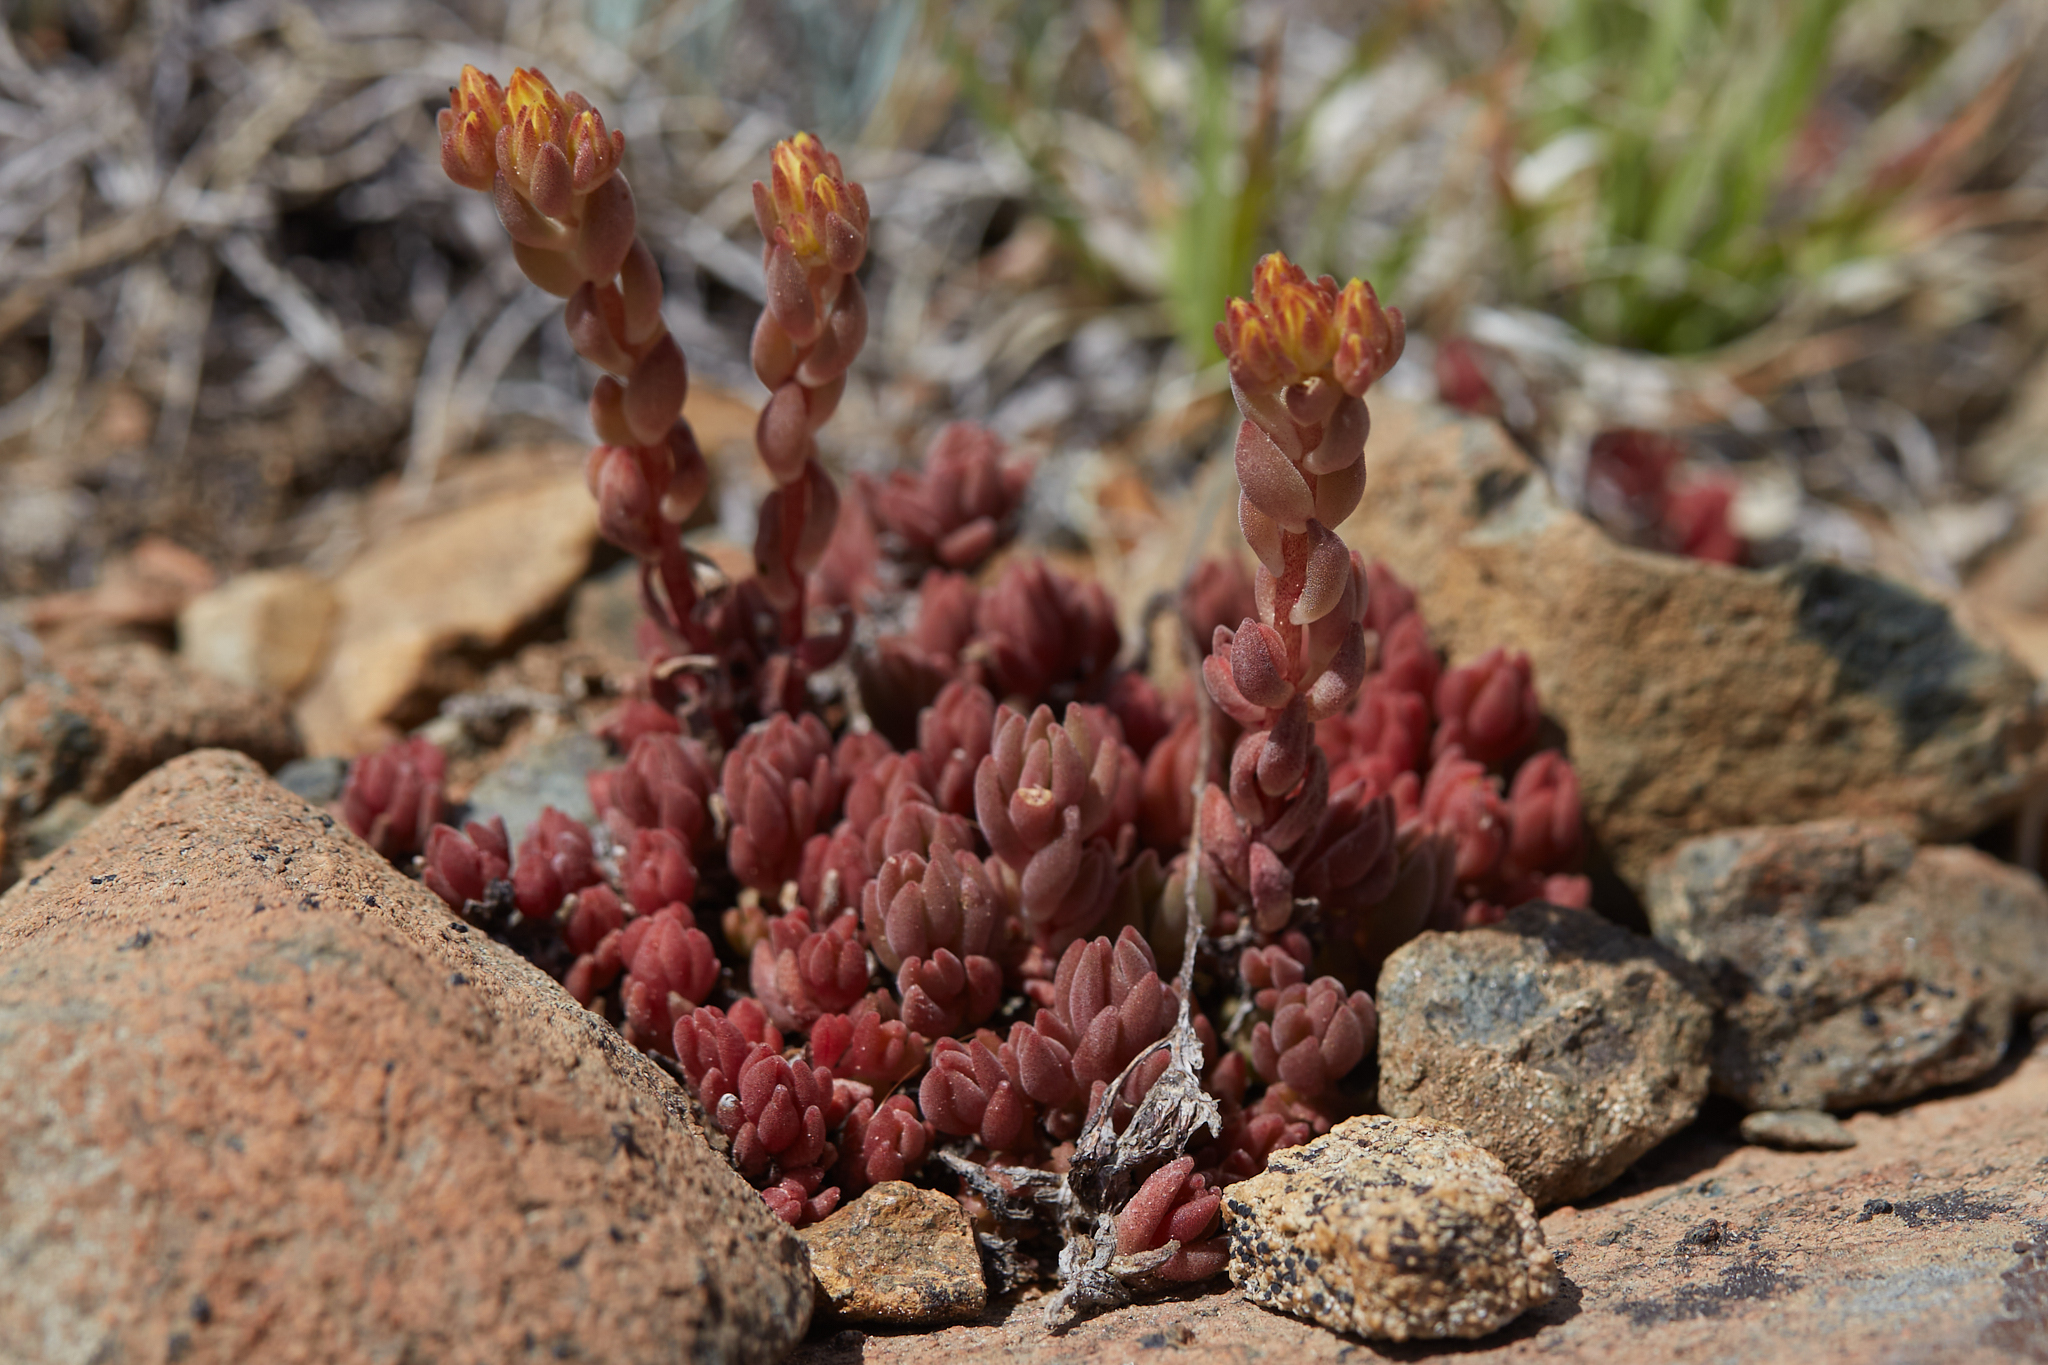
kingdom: Plantae
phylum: Tracheophyta
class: Magnoliopsida
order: Saxifragales
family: Crassulaceae
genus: Sedum
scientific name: Sedum lanceolatum
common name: Common stonecrop
